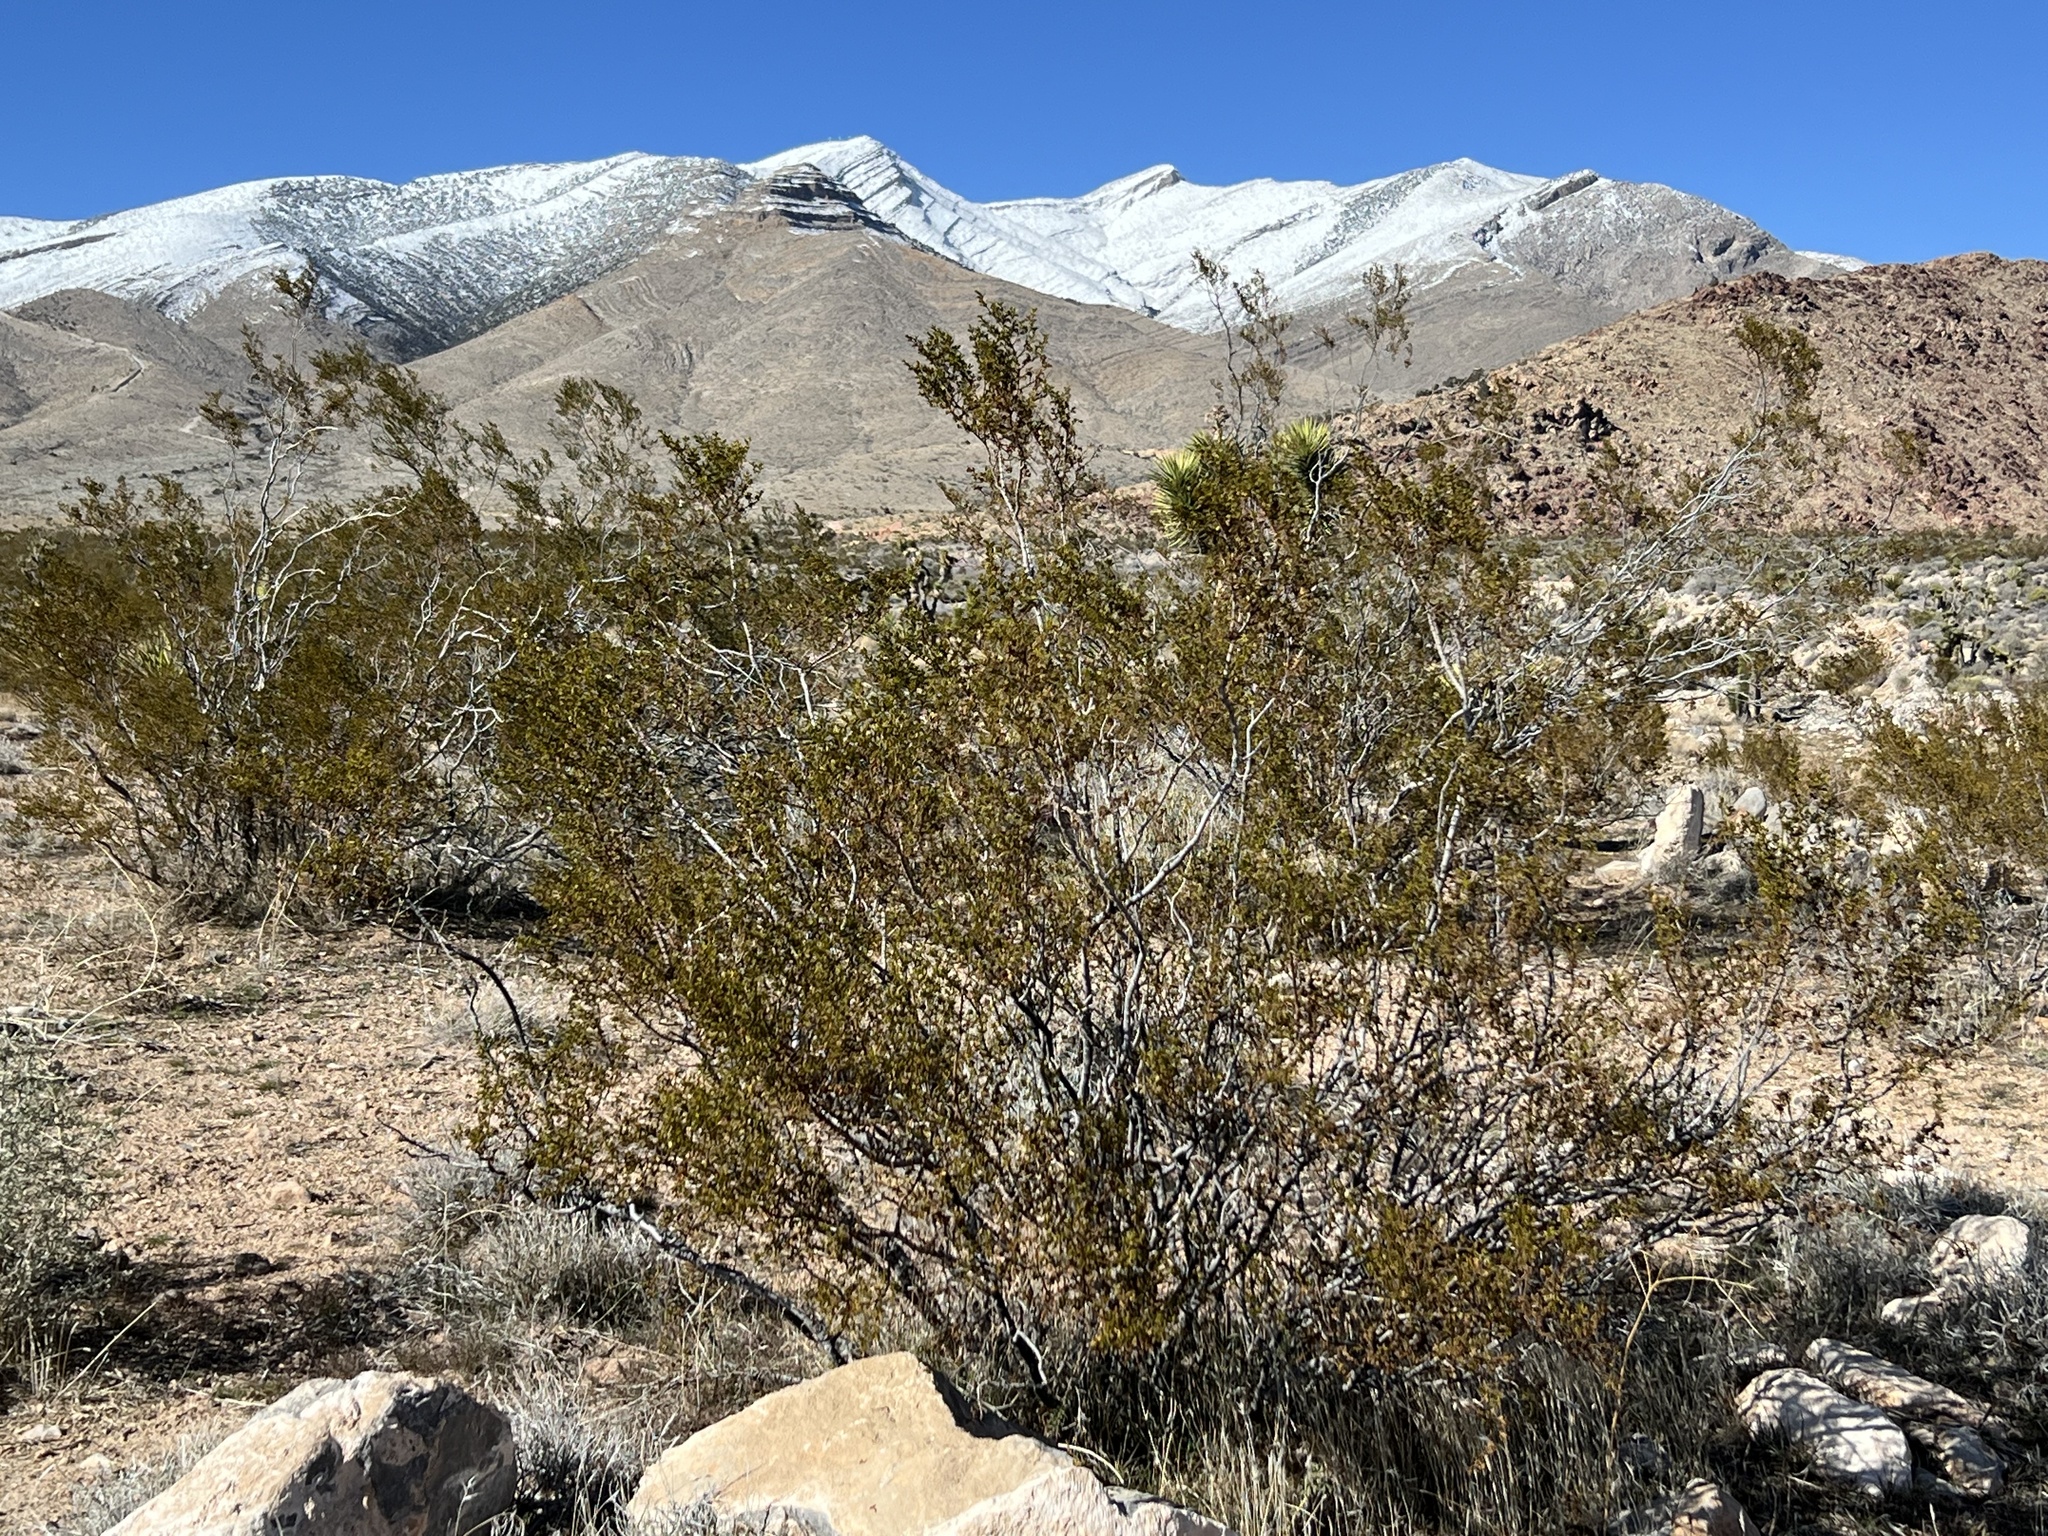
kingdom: Plantae
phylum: Tracheophyta
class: Magnoliopsida
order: Zygophyllales
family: Zygophyllaceae
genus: Larrea
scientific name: Larrea tridentata
